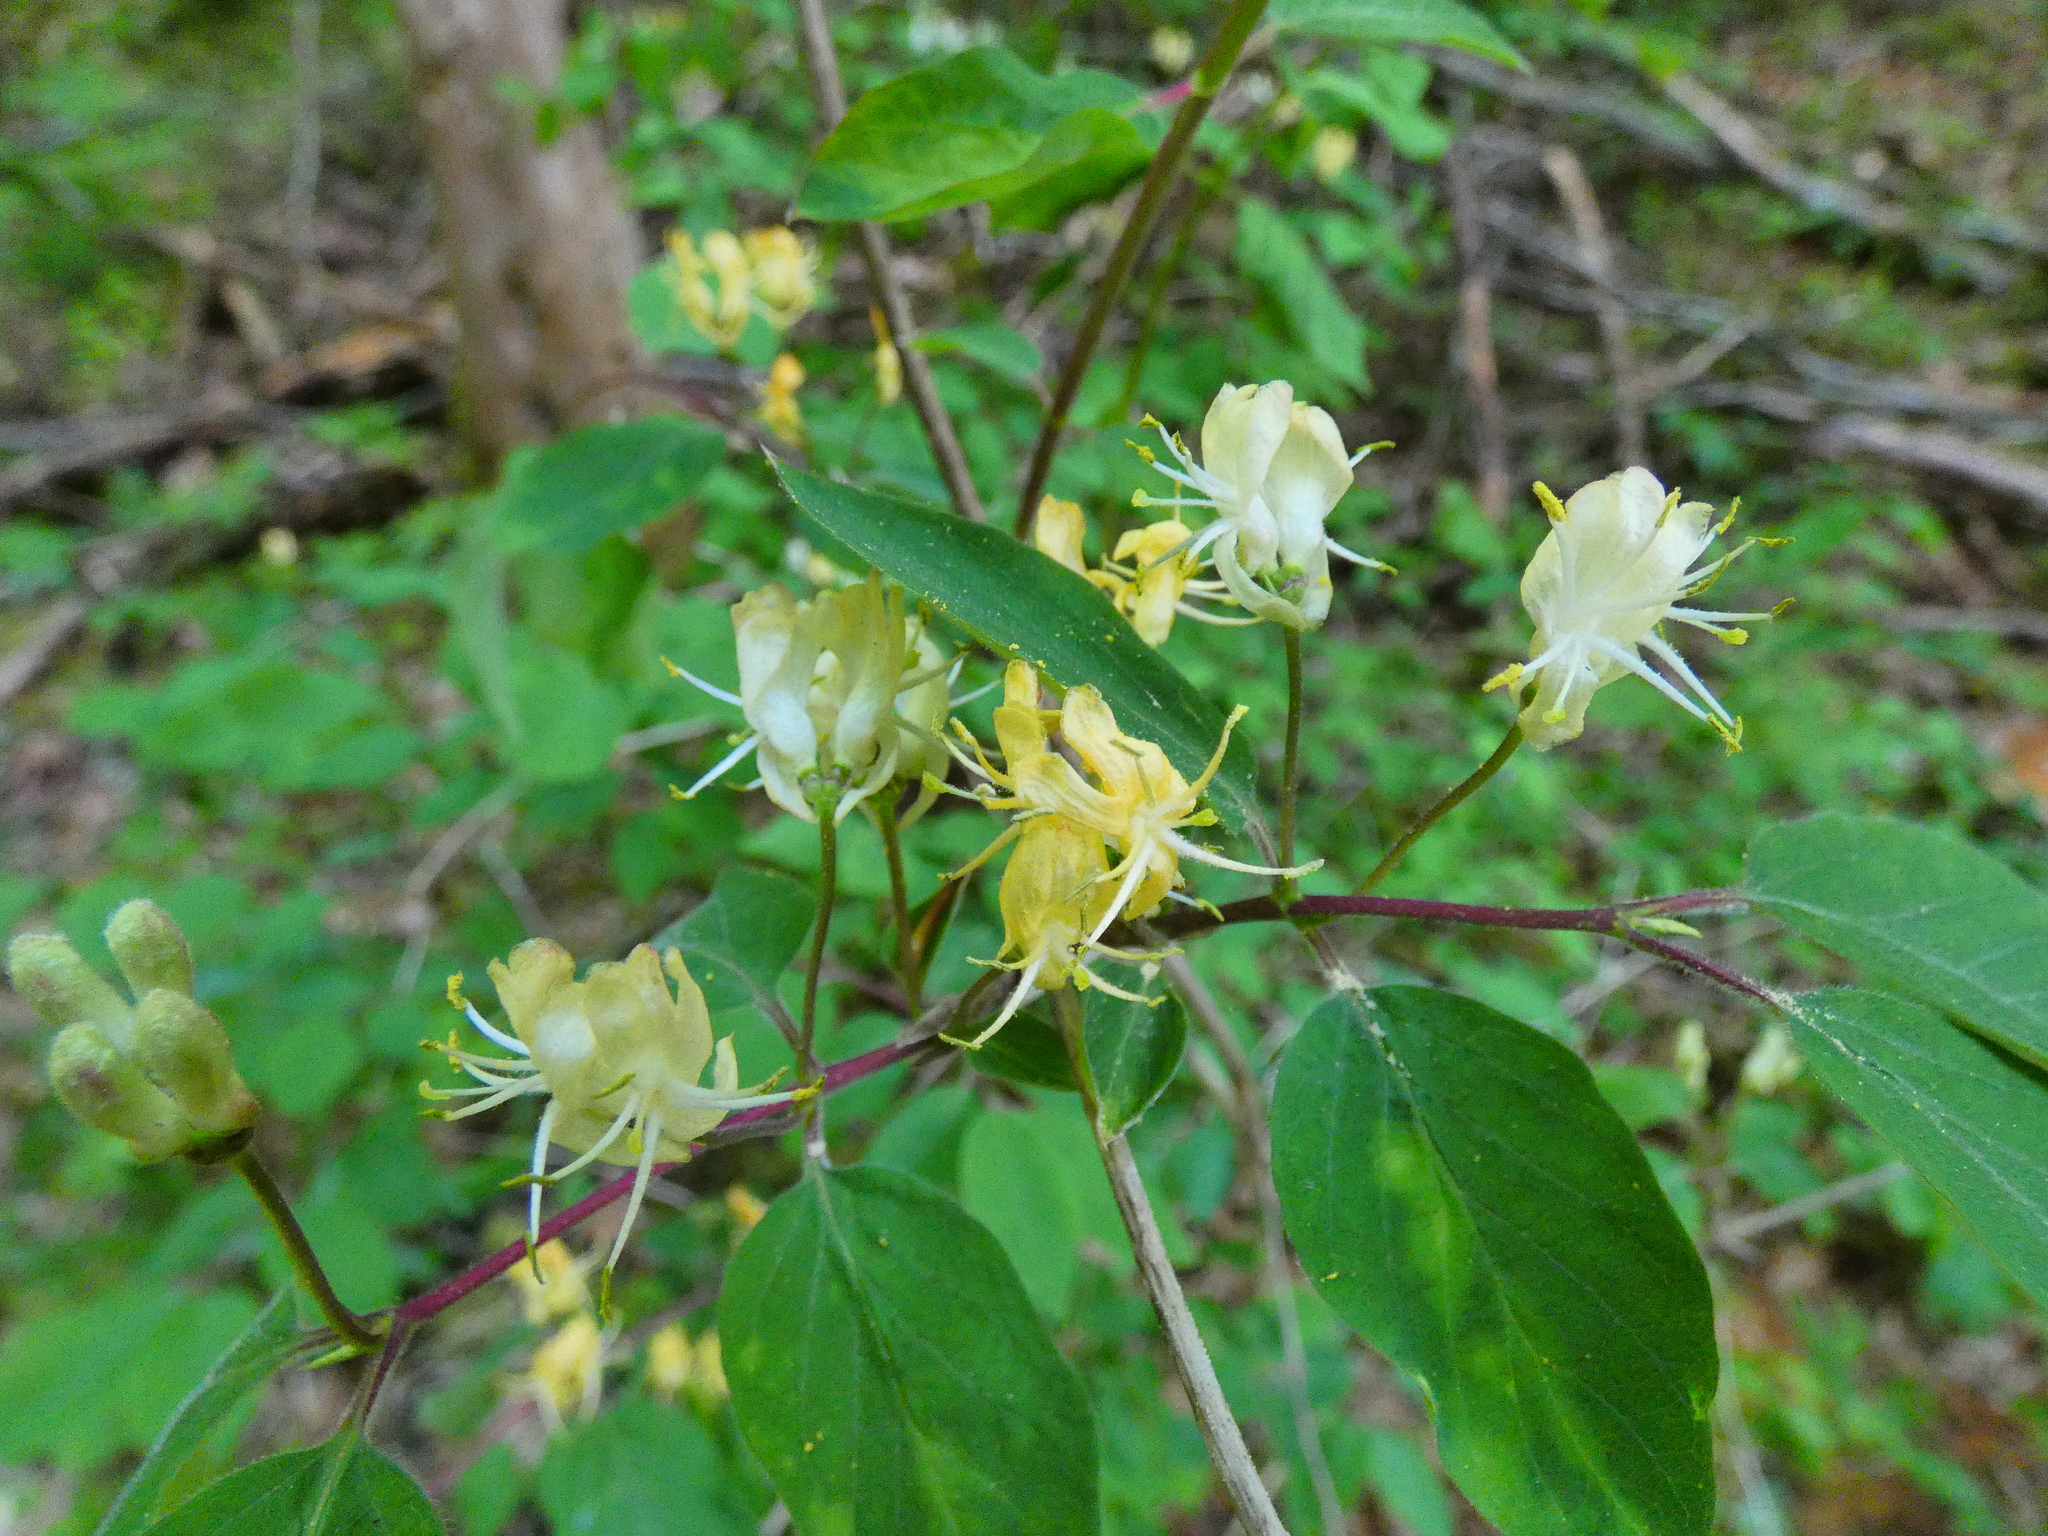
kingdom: Plantae
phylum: Tracheophyta
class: Magnoliopsida
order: Dipsacales
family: Caprifoliaceae
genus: Lonicera
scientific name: Lonicera xylosteum
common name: Fly honeysuckle
